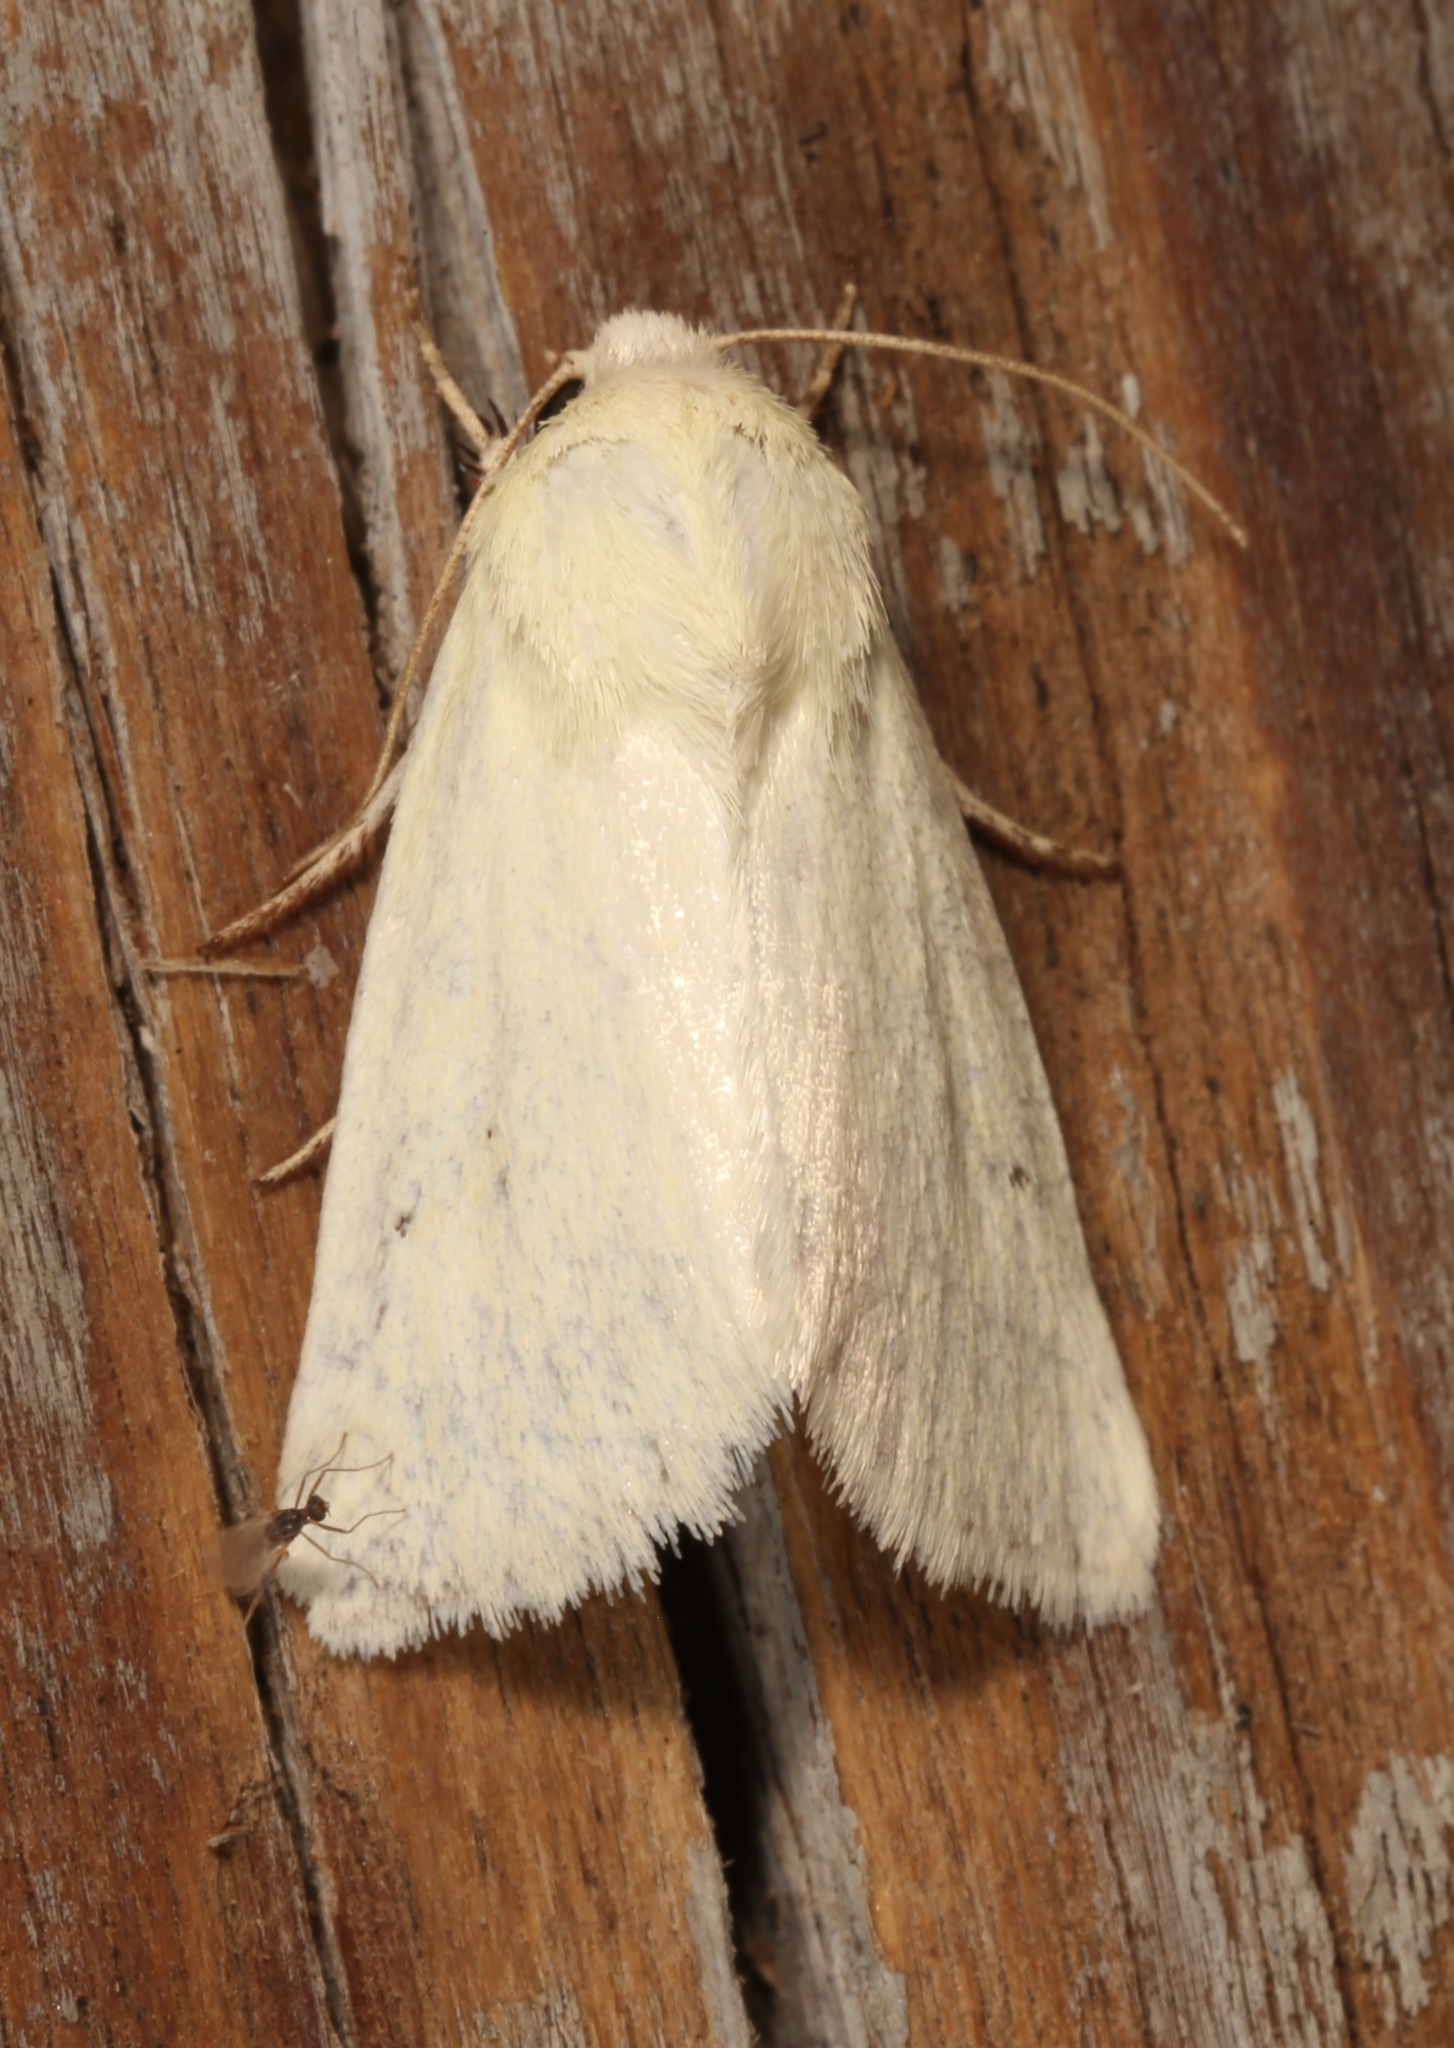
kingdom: Animalia
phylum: Arthropoda
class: Insecta
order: Lepidoptera
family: Noctuidae
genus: Schinia
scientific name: Schinia citrinellus
